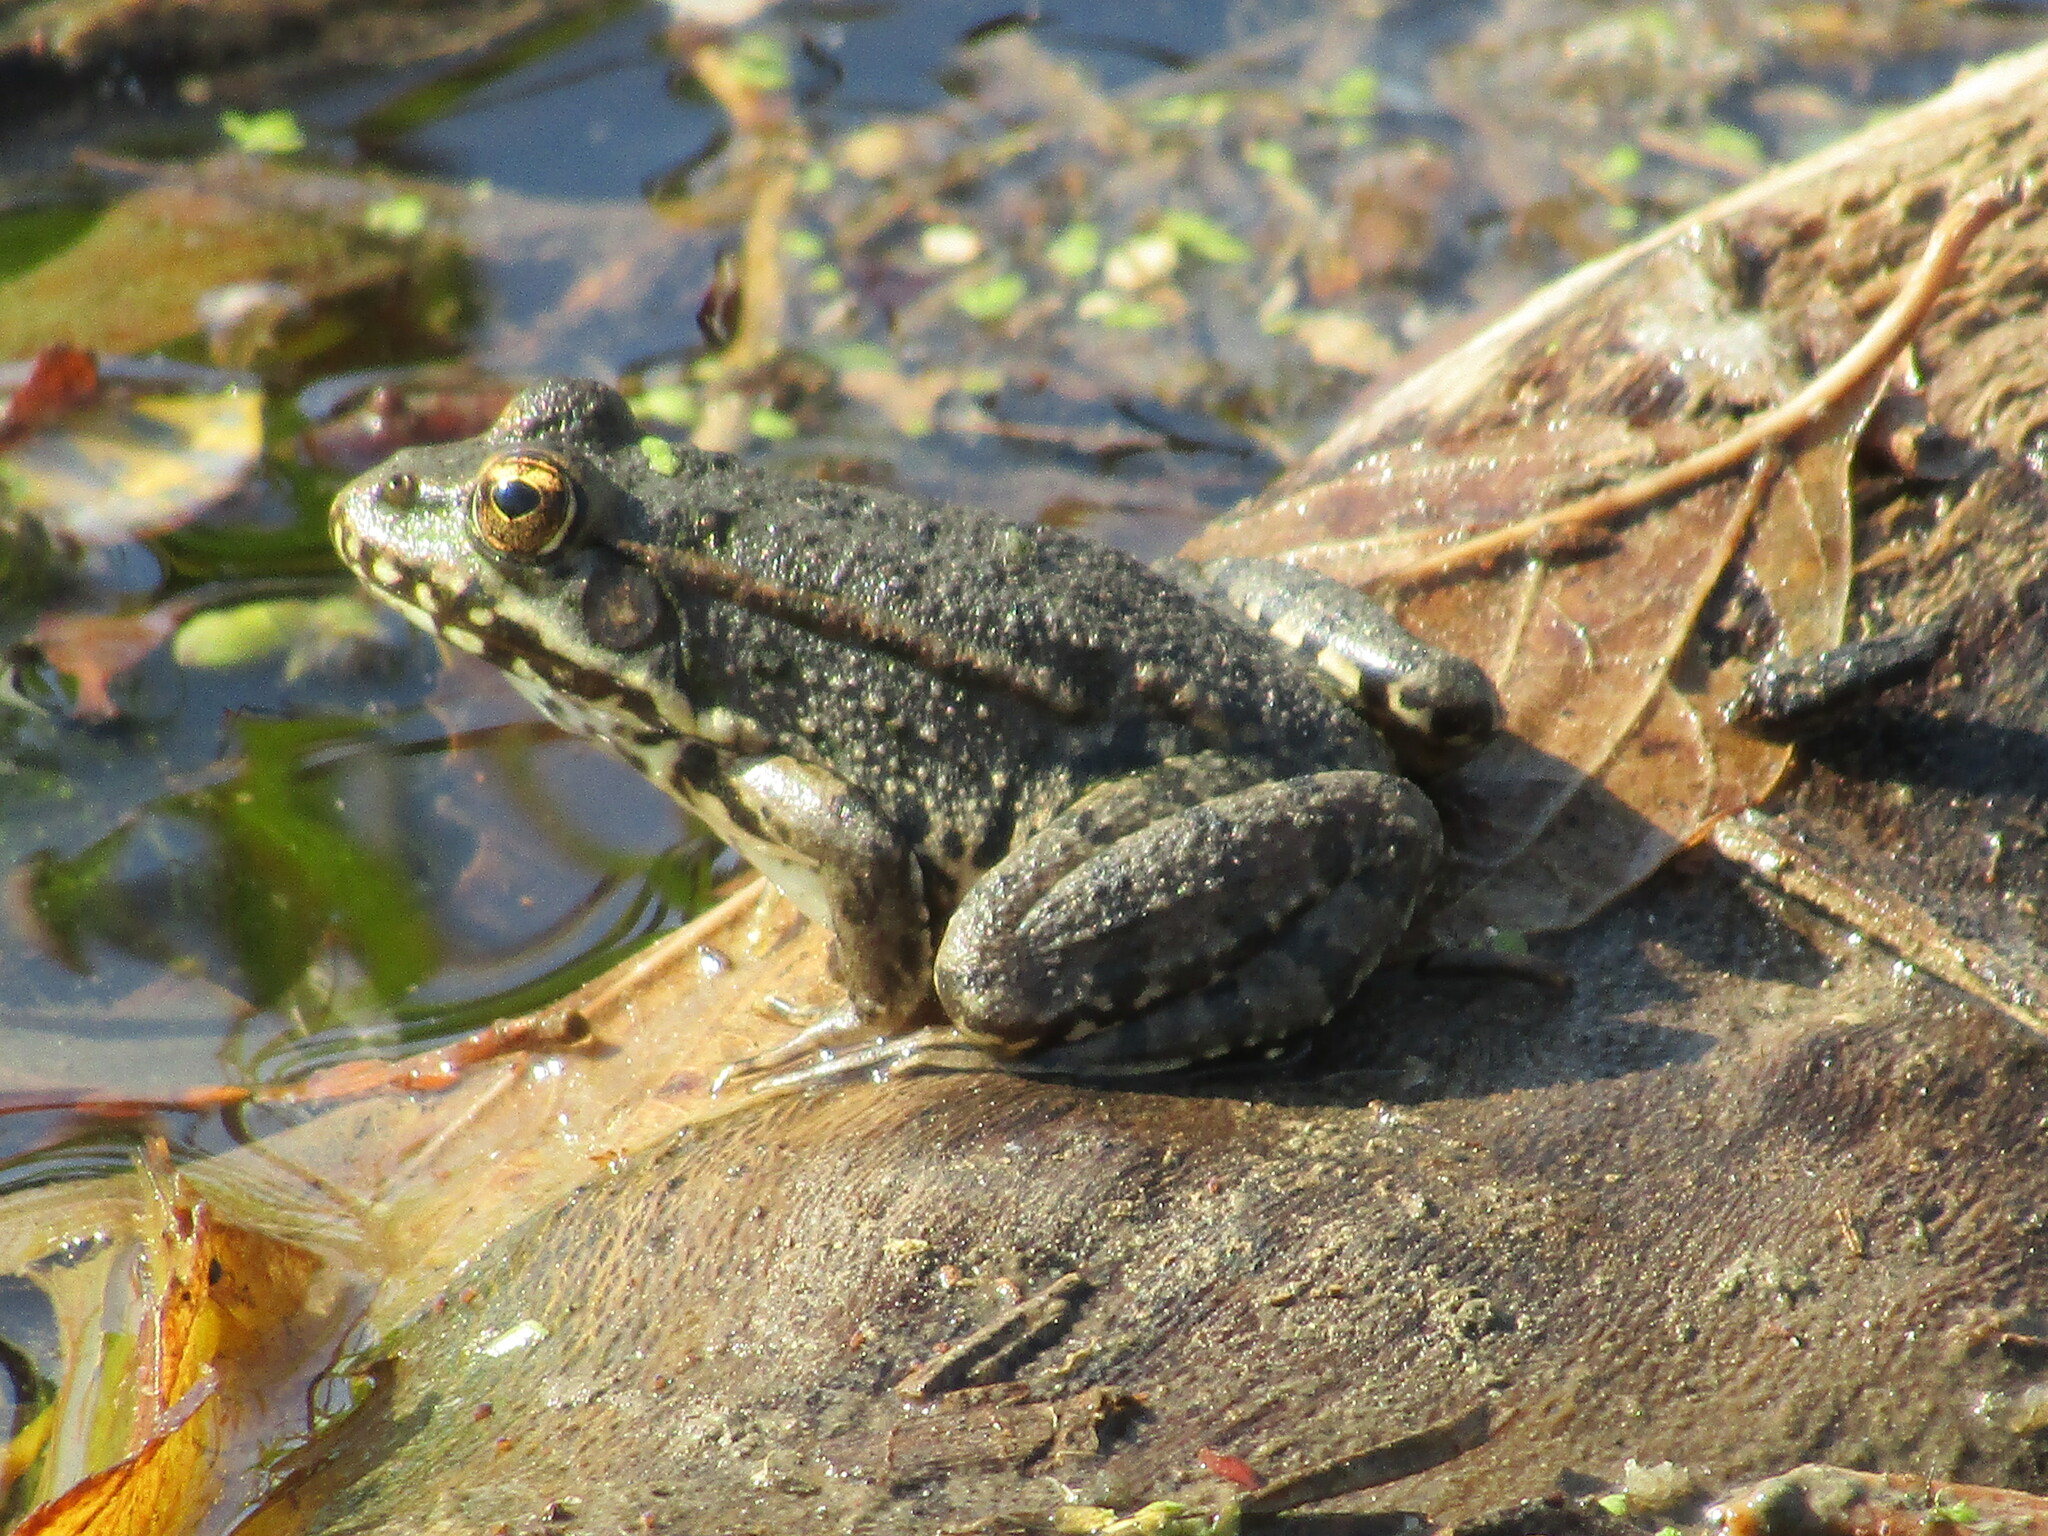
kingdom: Animalia
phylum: Chordata
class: Amphibia
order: Anura
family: Ranidae
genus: Pelophylax
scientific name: Pelophylax ridibundus
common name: Marsh frog
